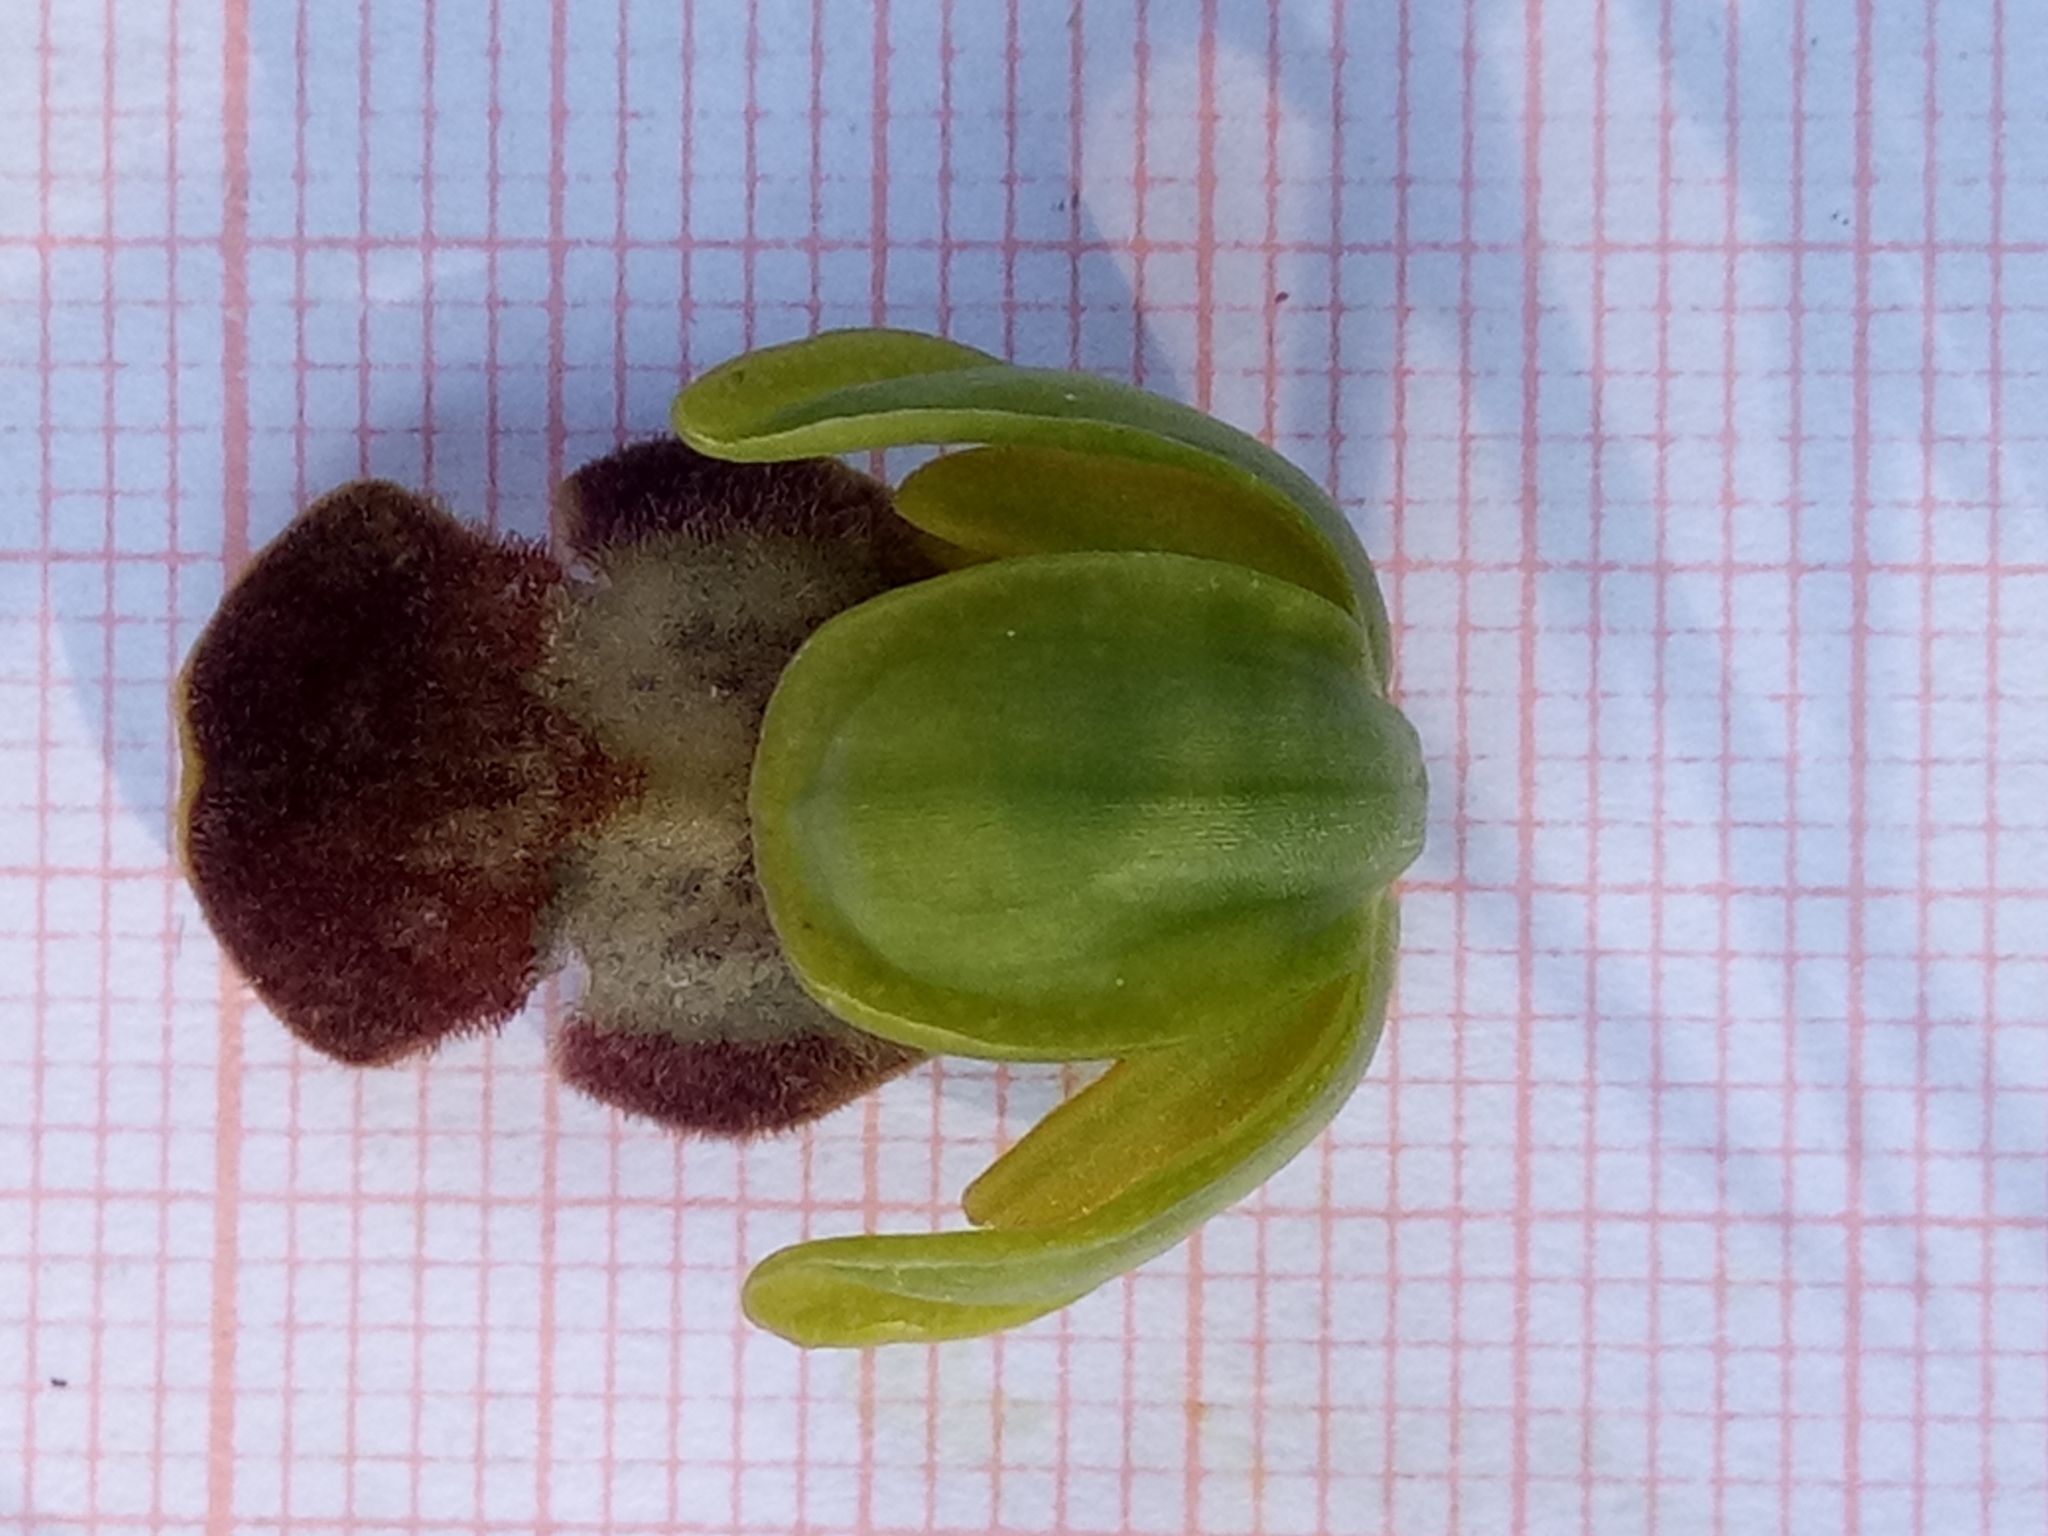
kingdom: Plantae
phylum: Tracheophyta
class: Liliopsida
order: Asparagales
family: Orchidaceae
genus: Ophrys
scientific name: Ophrys fusca
